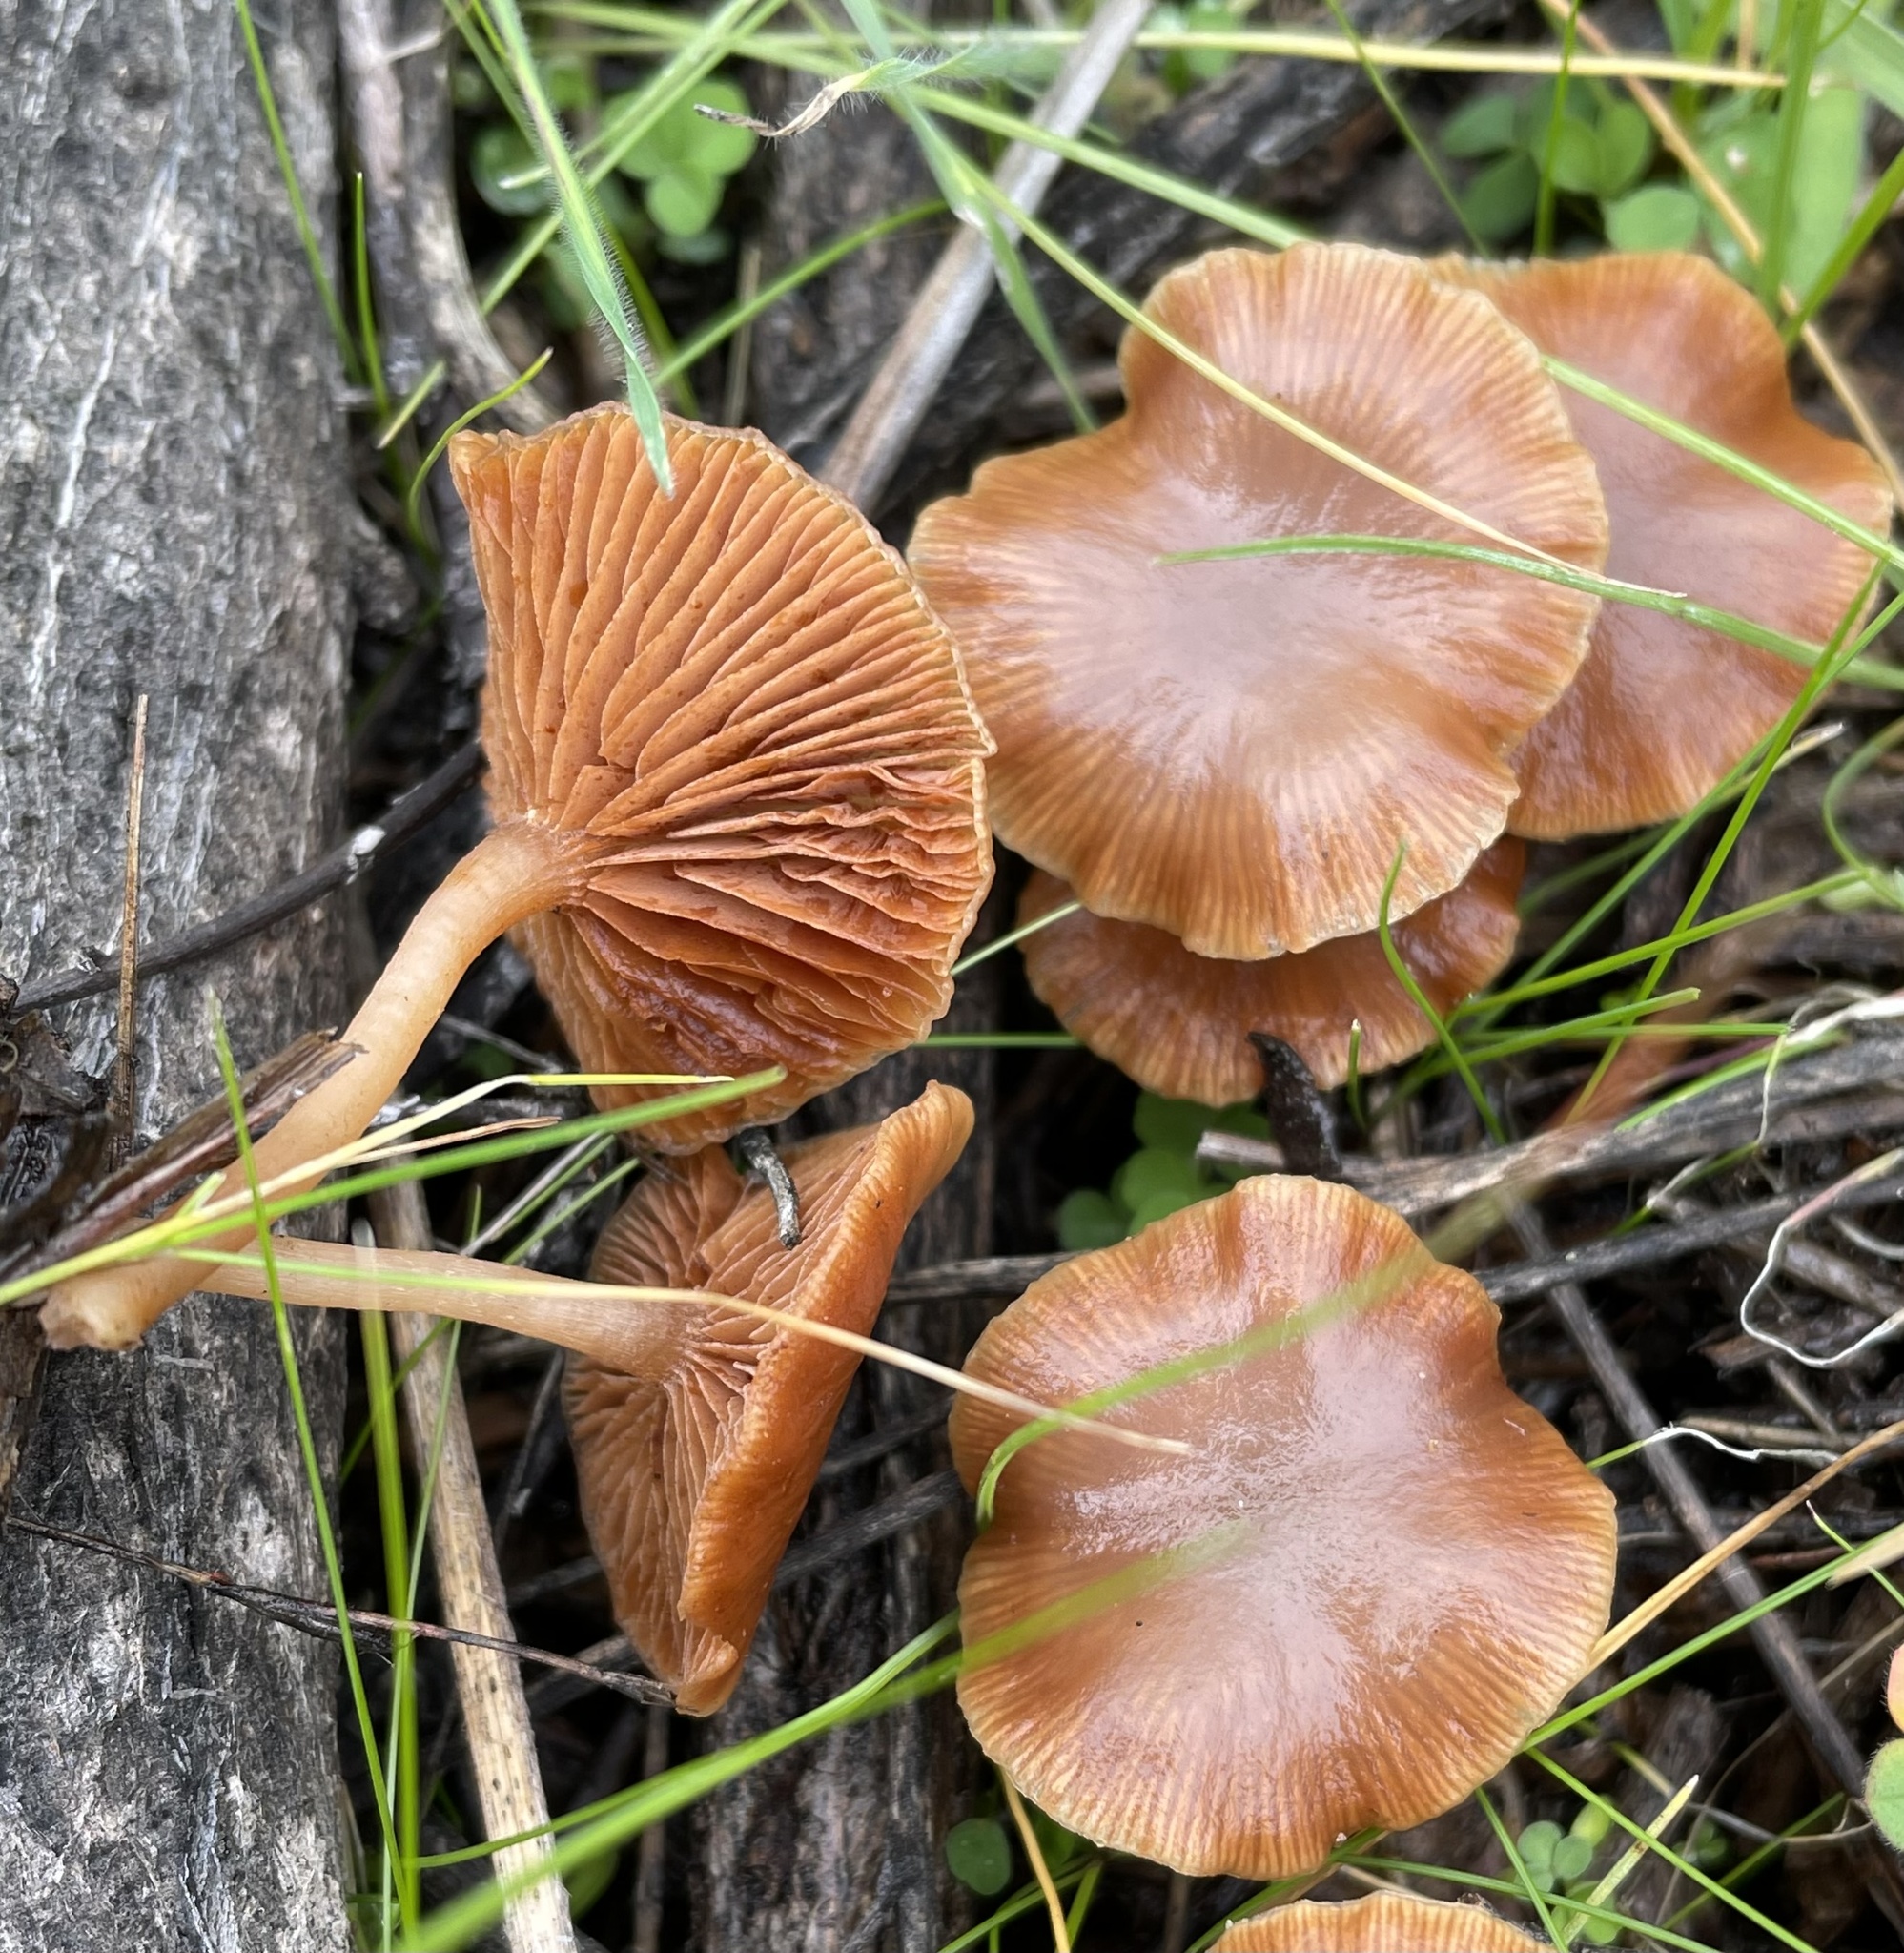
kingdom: Fungi
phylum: Basidiomycota
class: Agaricomycetes
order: Agaricales
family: Tubariaceae
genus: Tubaria
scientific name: Tubaria furfuracea
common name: Scurfy twiglet
